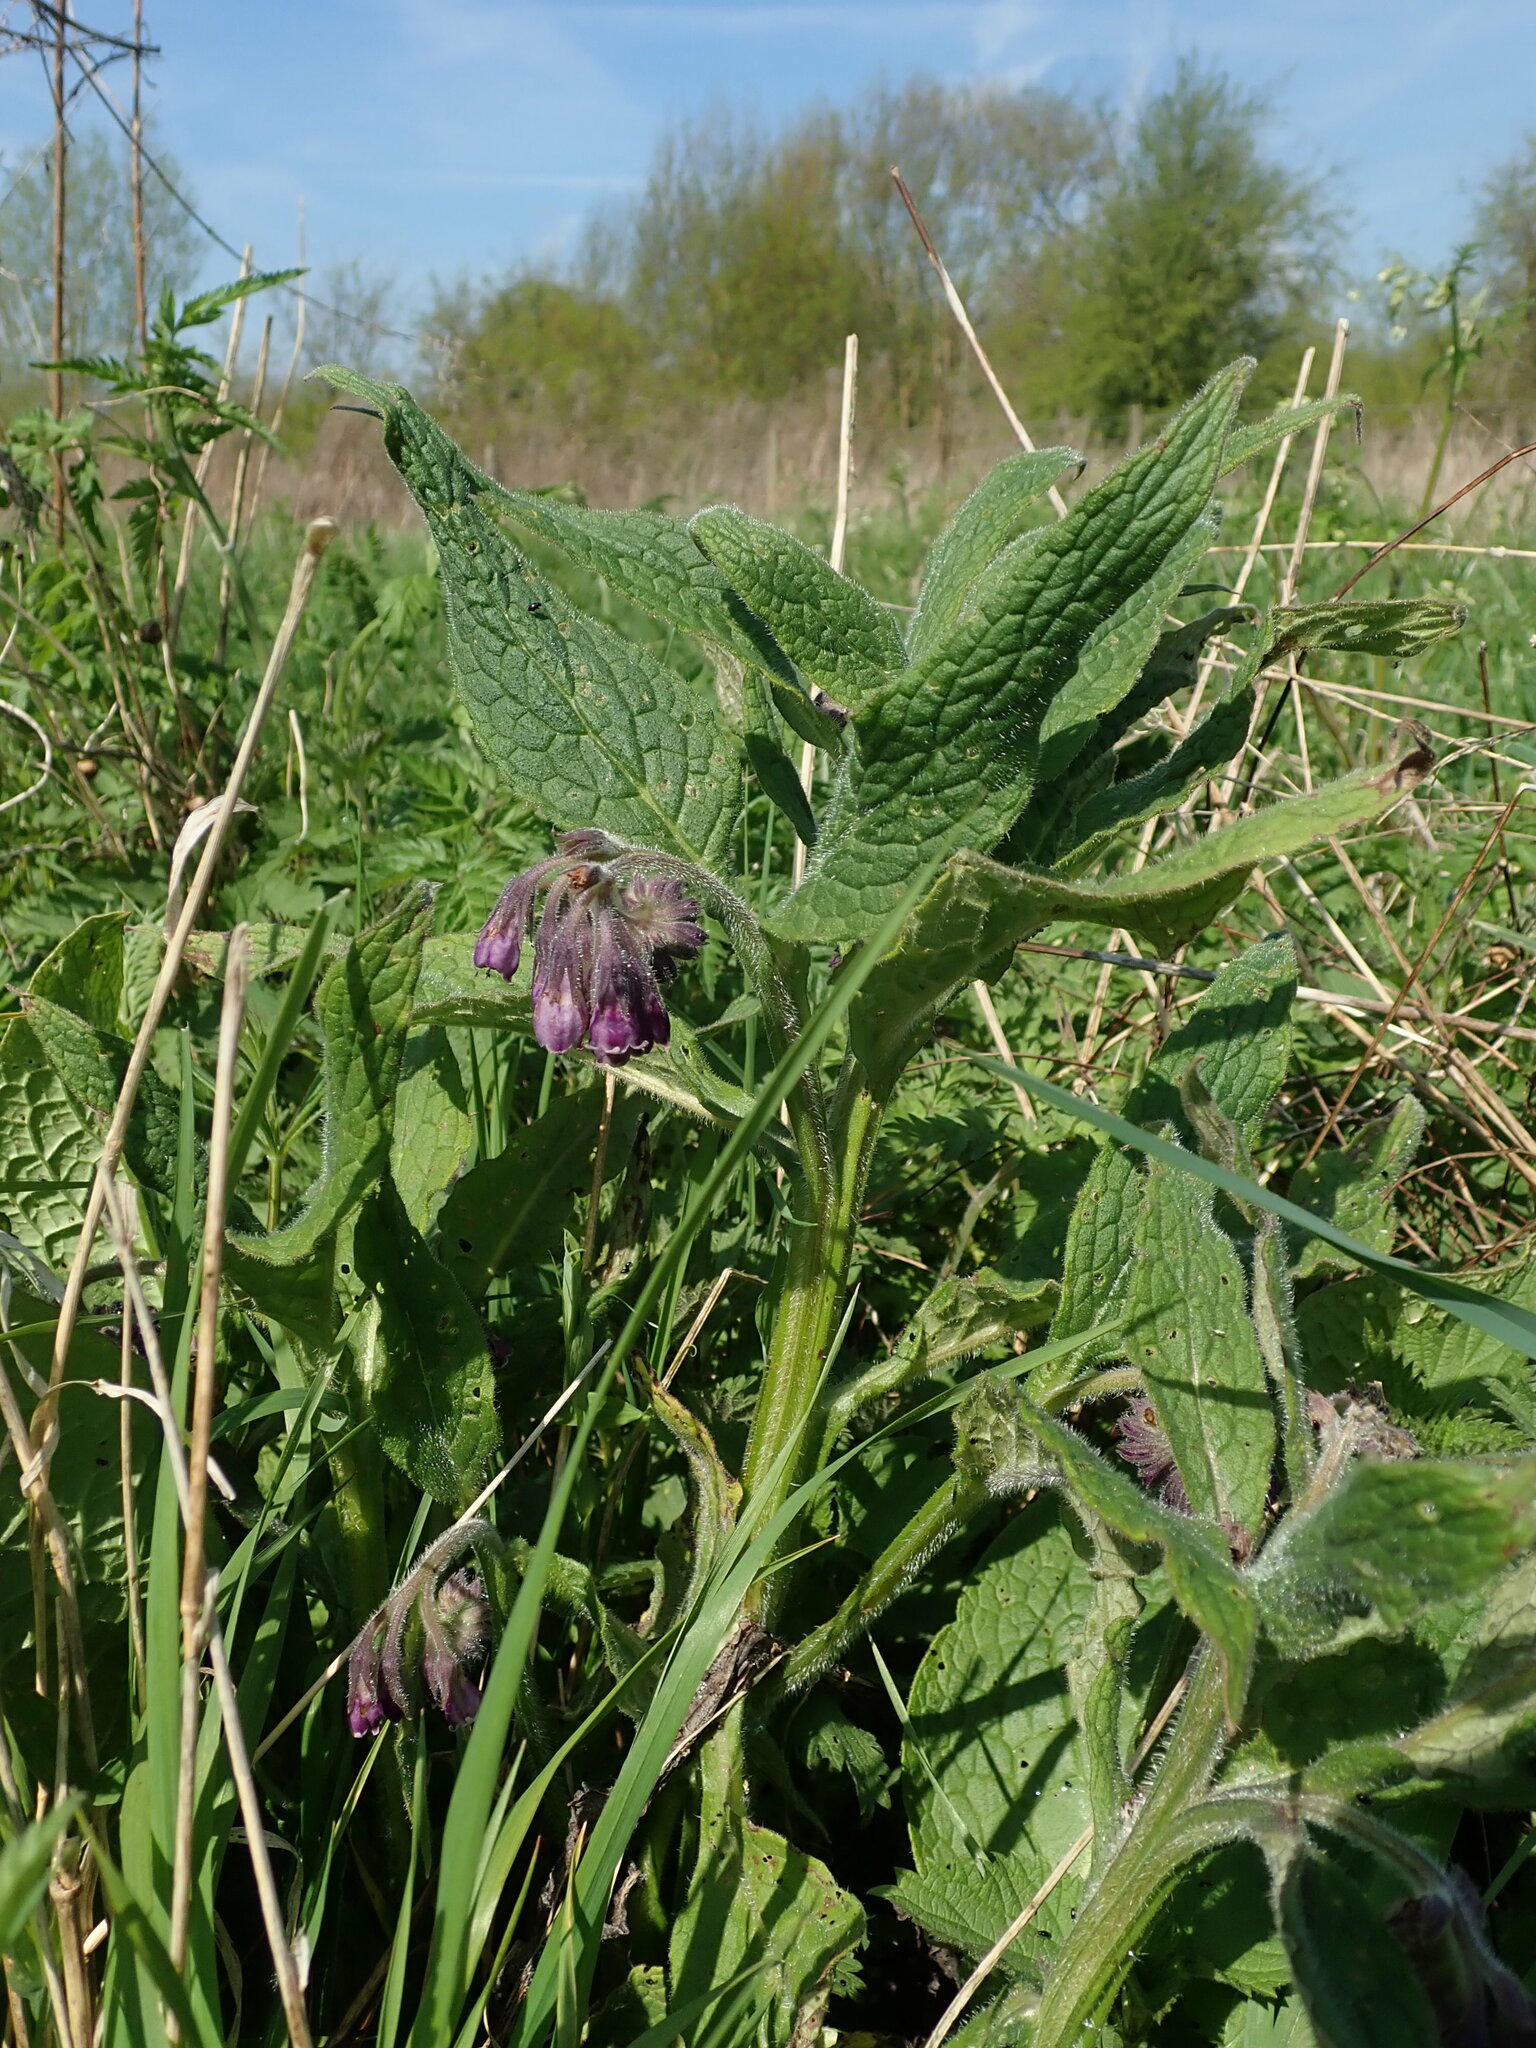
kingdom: Plantae
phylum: Tracheophyta
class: Magnoliopsida
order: Boraginales
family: Boraginaceae
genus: Symphytum
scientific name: Symphytum officinale
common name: Common comfrey
